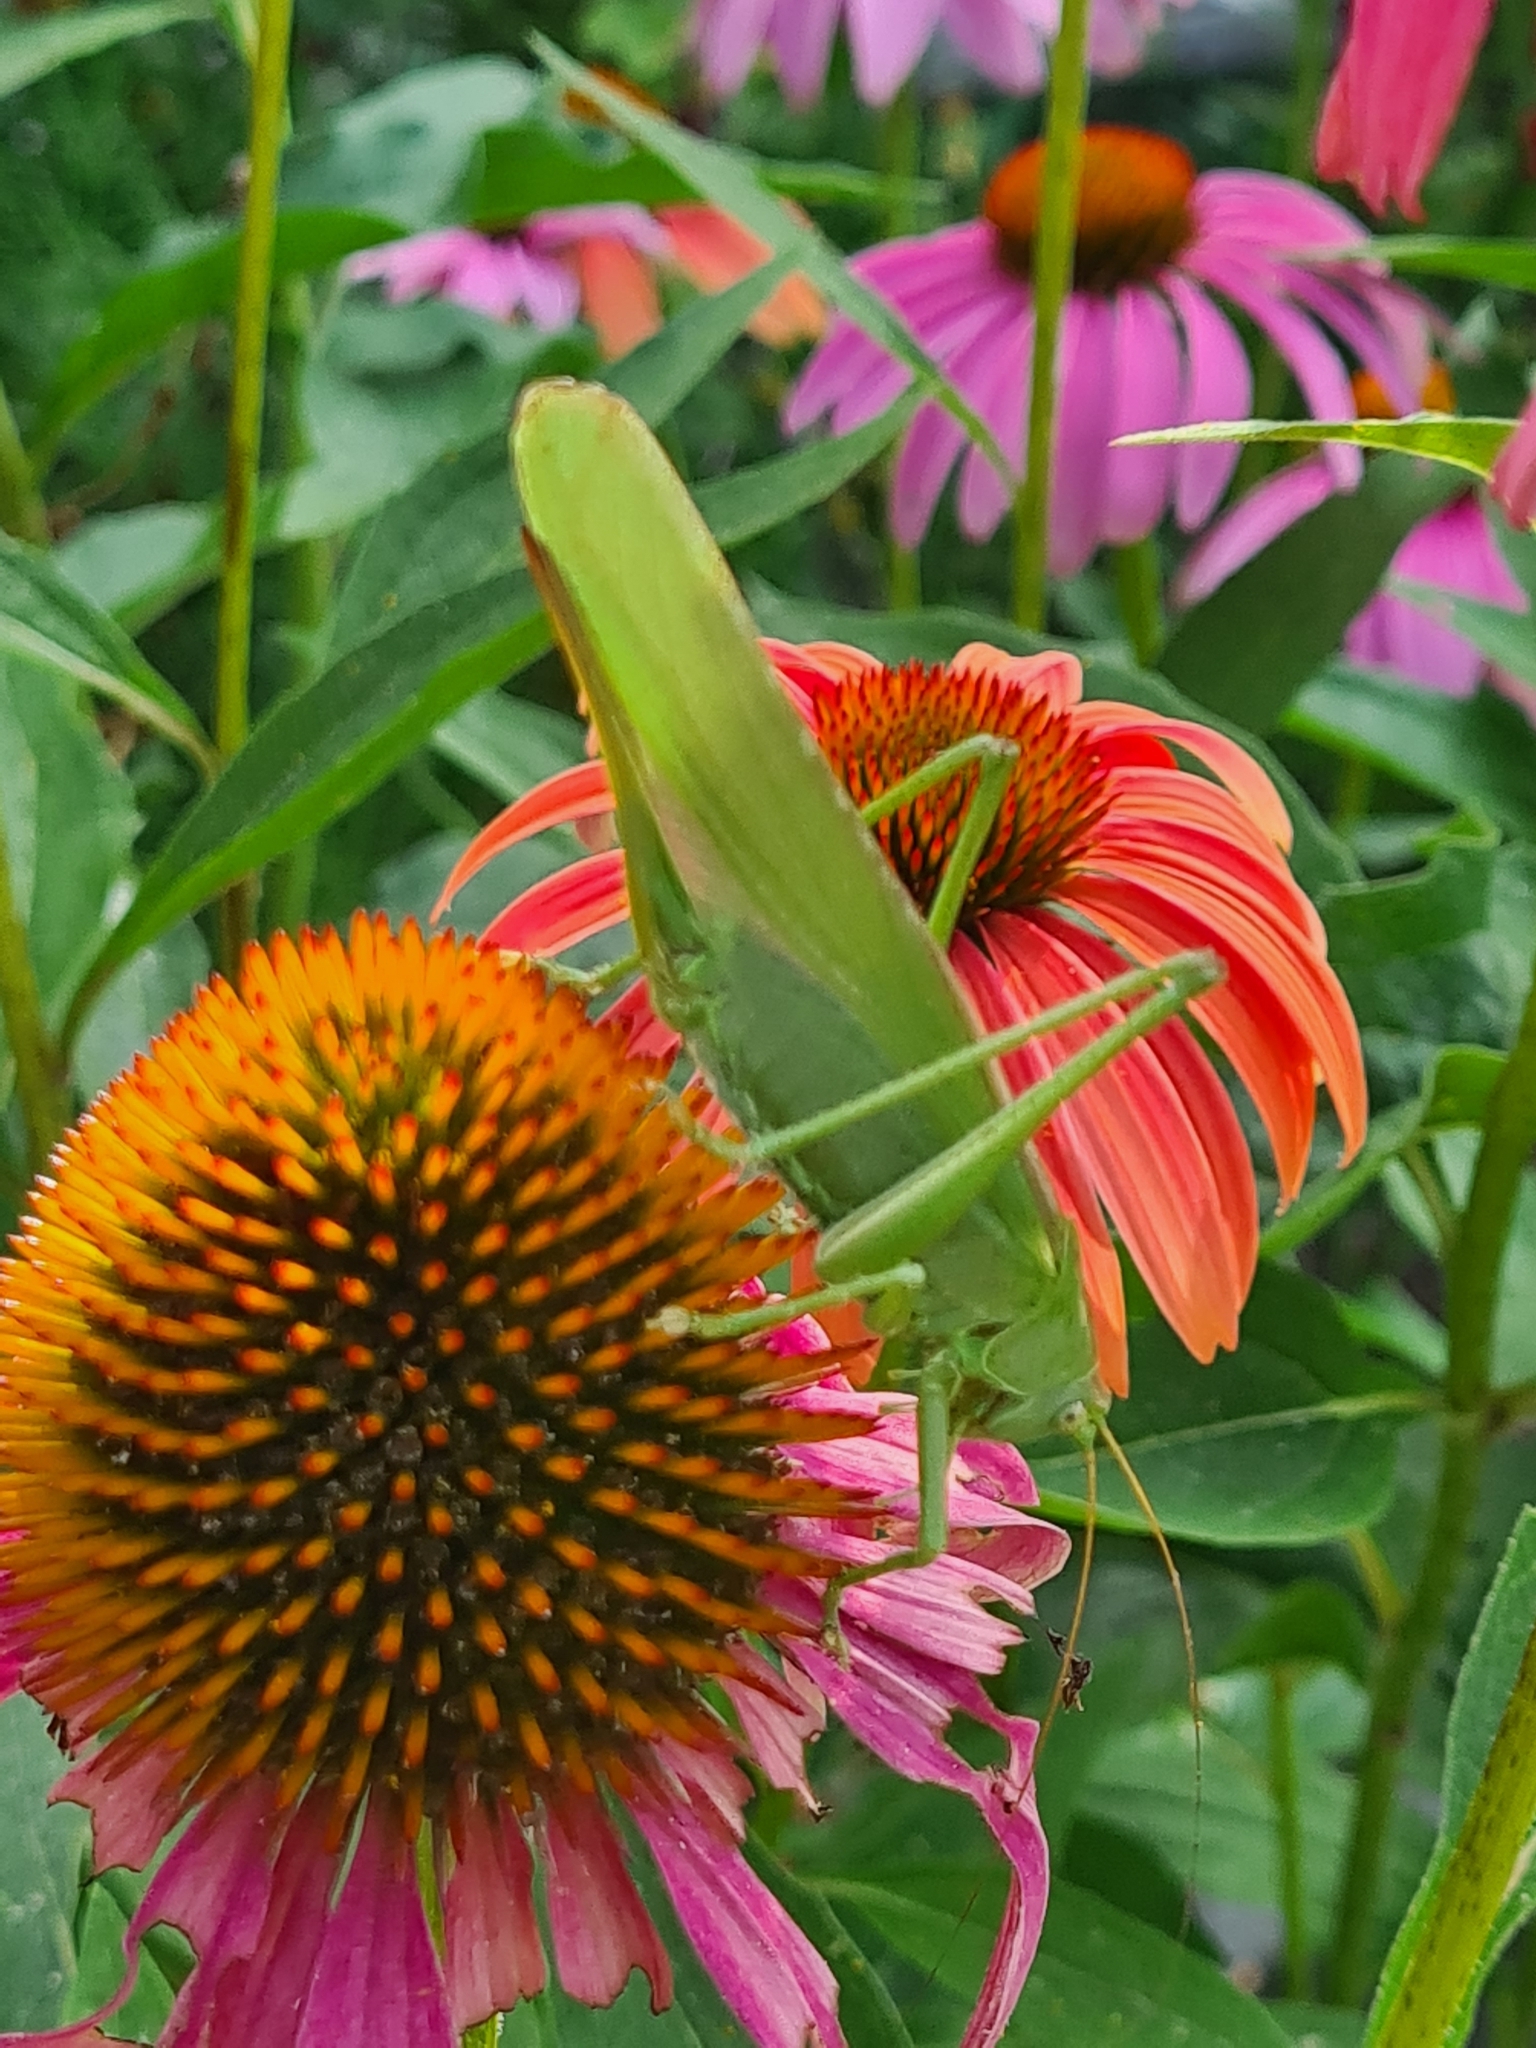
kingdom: Animalia
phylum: Arthropoda
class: Insecta
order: Orthoptera
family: Tettigoniidae
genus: Tettigonia
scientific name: Tettigonia viridissima
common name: Great green bush-cricket
